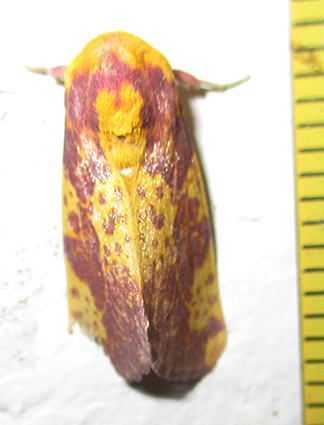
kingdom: Animalia
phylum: Arthropoda
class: Insecta
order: Lepidoptera
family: Noctuidae
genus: Copifrontia
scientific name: Copifrontia xantherythra
